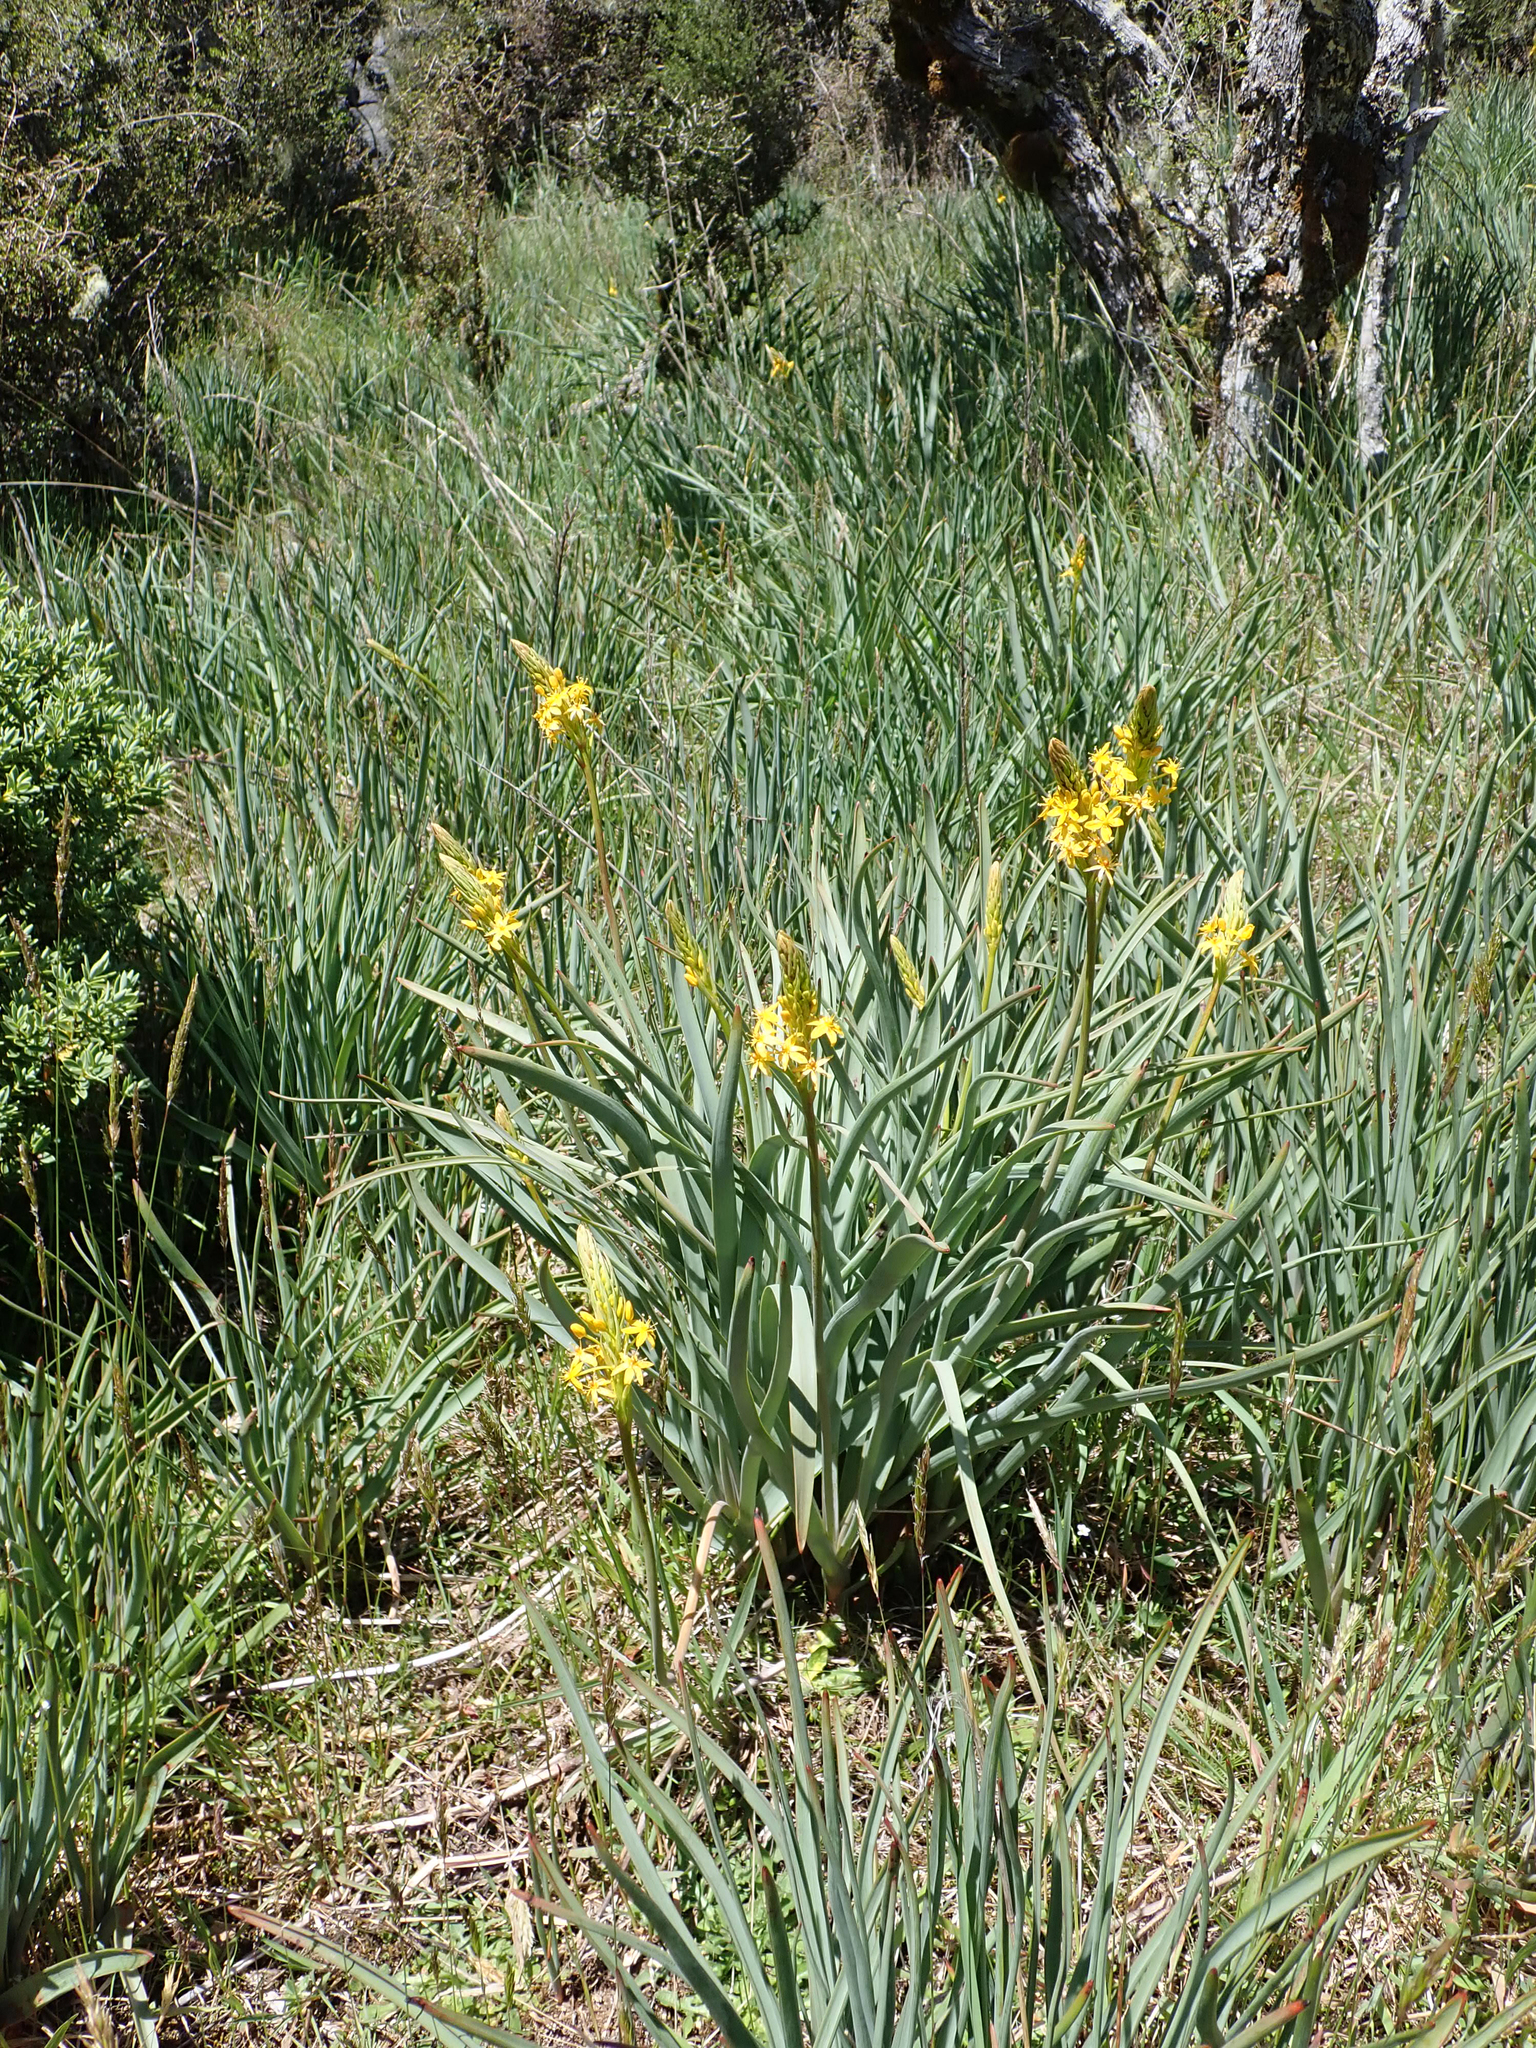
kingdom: Plantae
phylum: Tracheophyta
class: Liliopsida
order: Asparagales
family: Asphodelaceae
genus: Bulbinella
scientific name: Bulbinella hookeri
